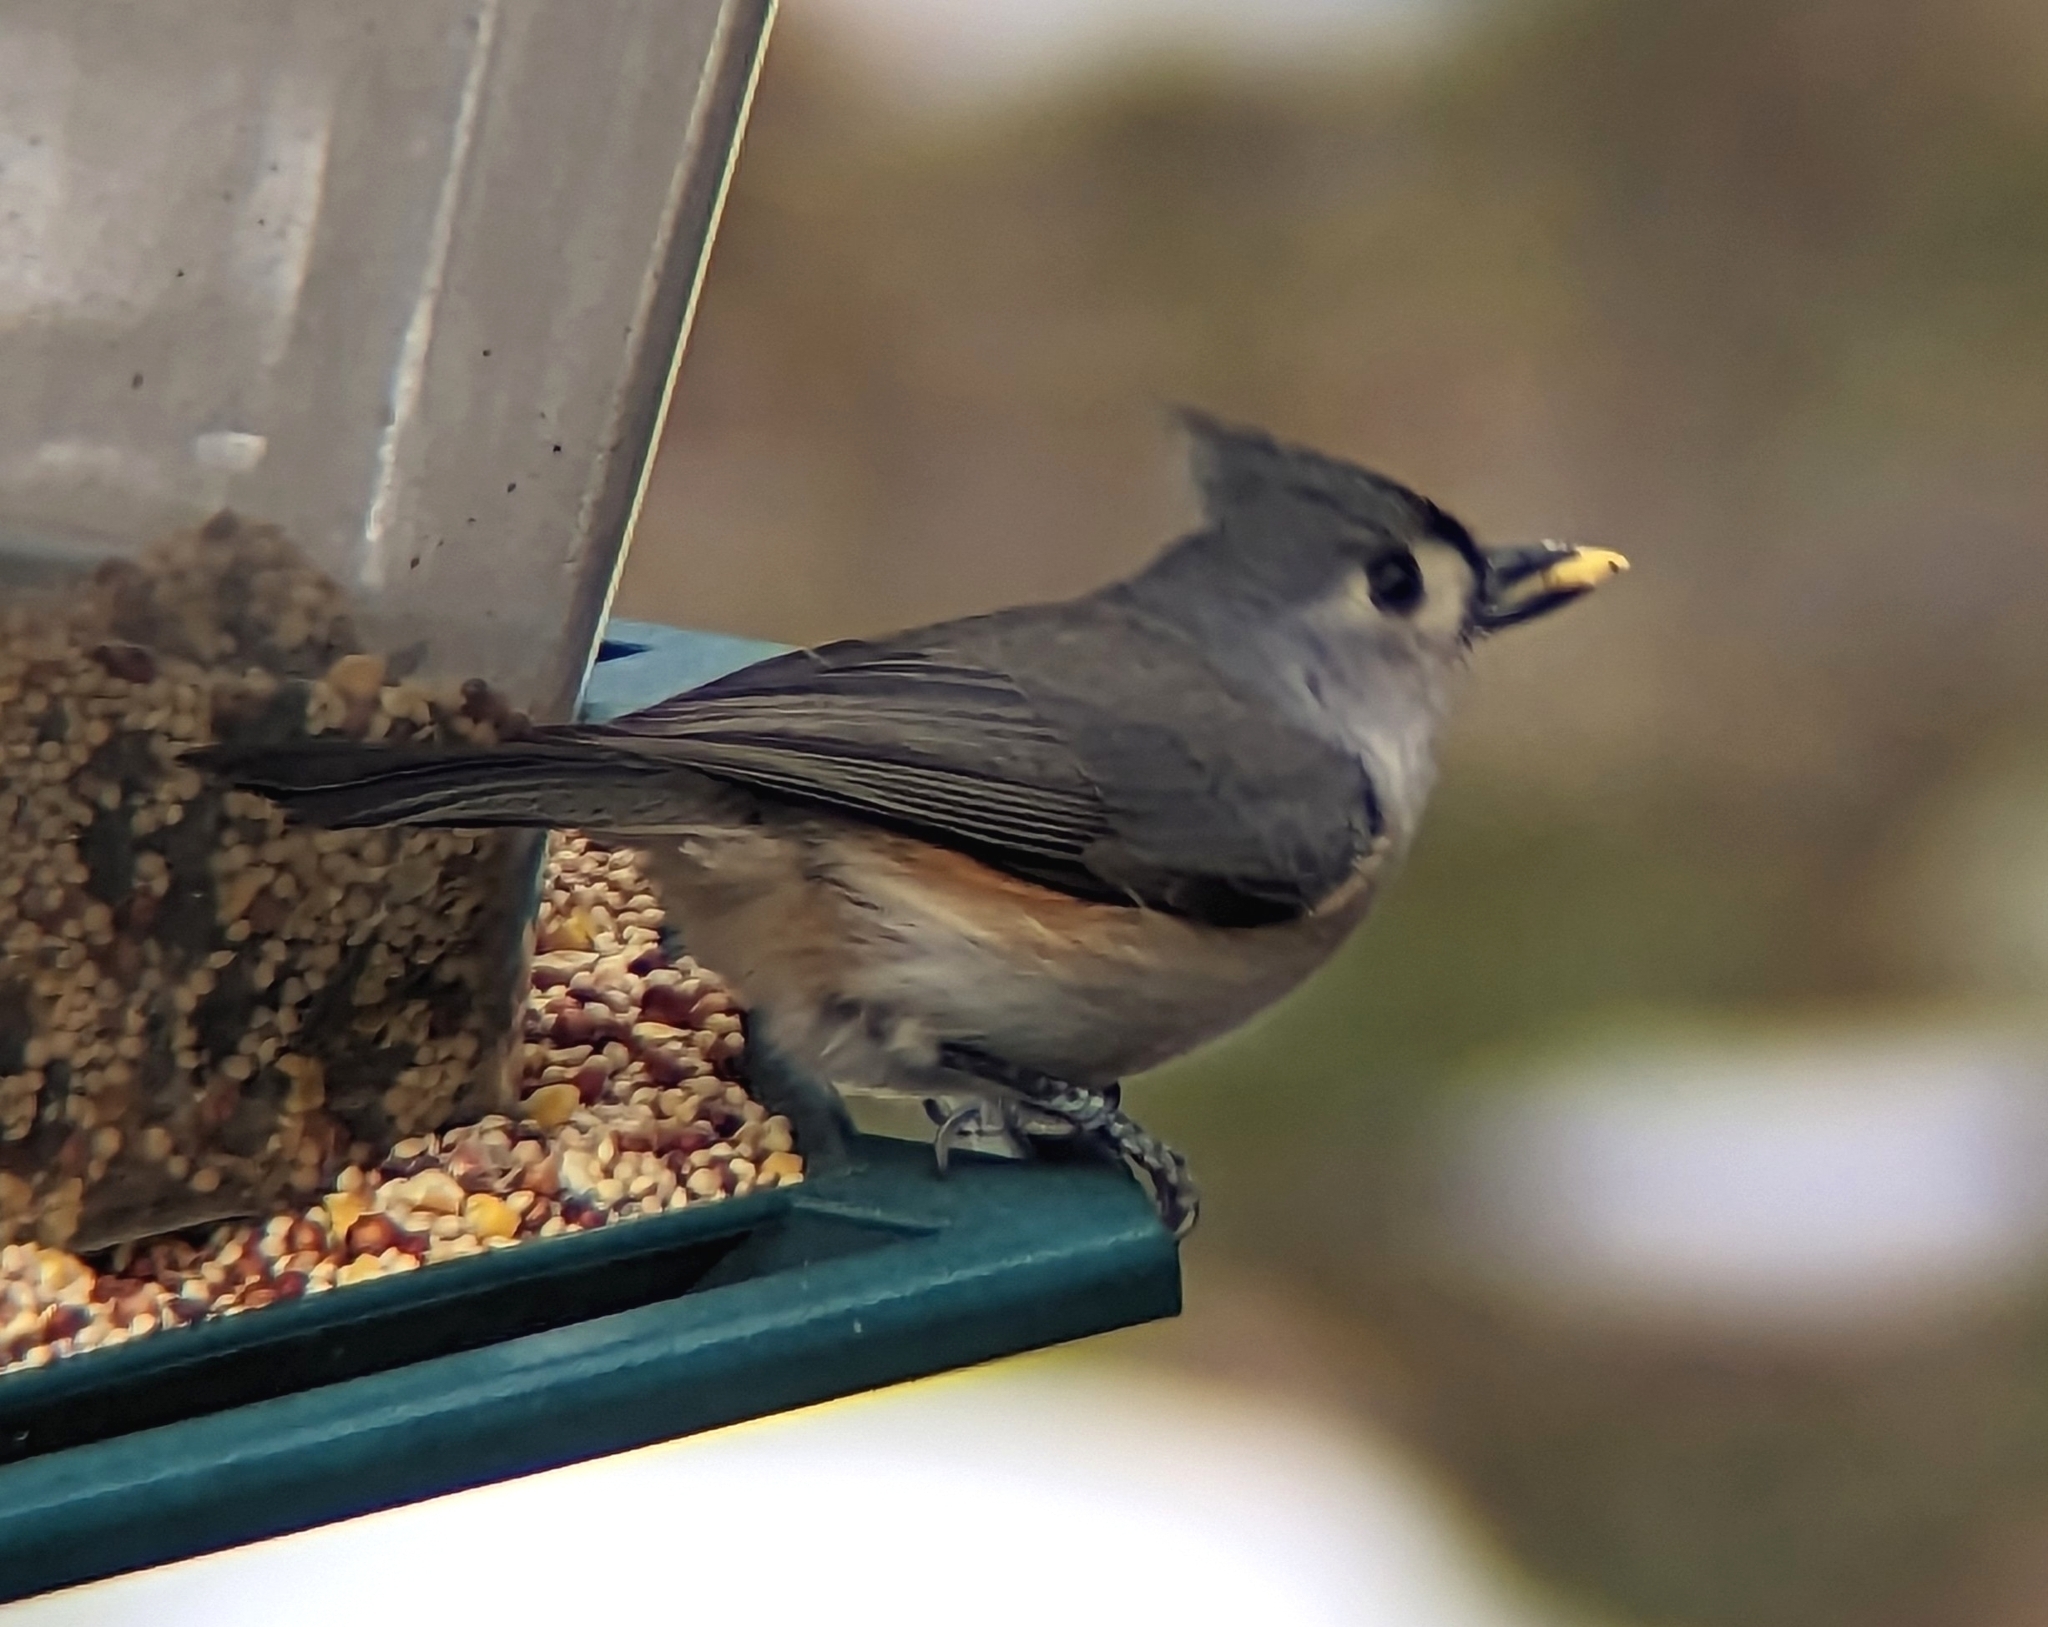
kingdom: Animalia
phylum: Chordata
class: Aves
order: Passeriformes
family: Paridae
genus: Baeolophus
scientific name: Baeolophus bicolor
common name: Tufted titmouse
